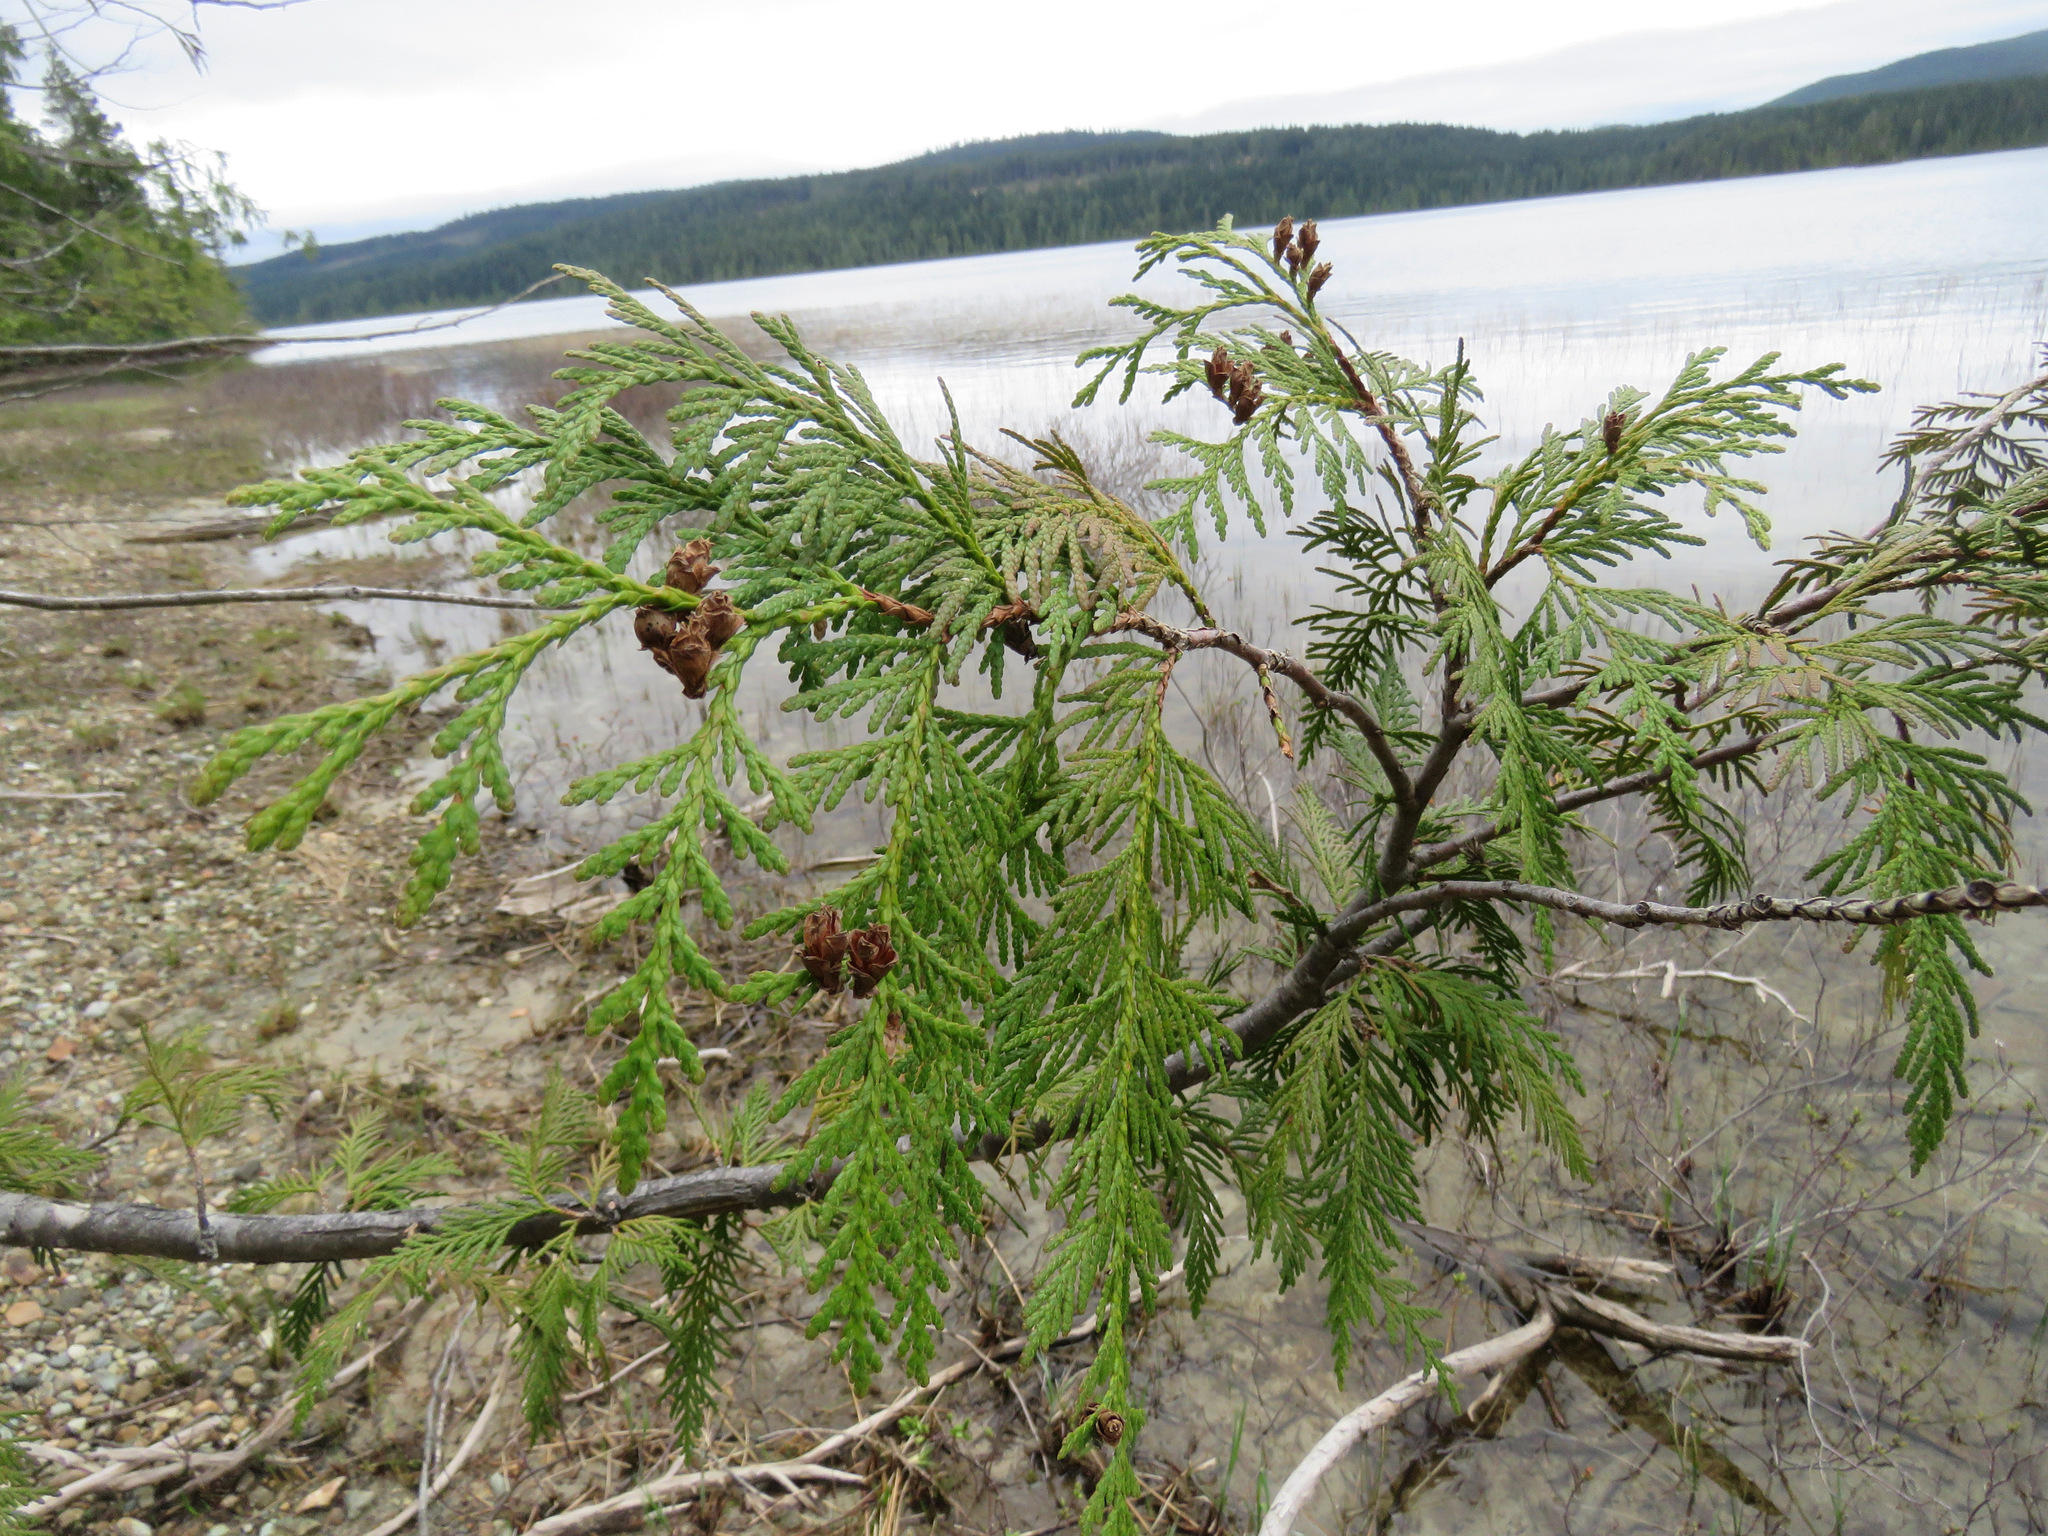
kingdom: Plantae
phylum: Tracheophyta
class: Pinopsida
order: Pinales
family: Cupressaceae
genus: Thuja
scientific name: Thuja plicata
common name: Western red-cedar
